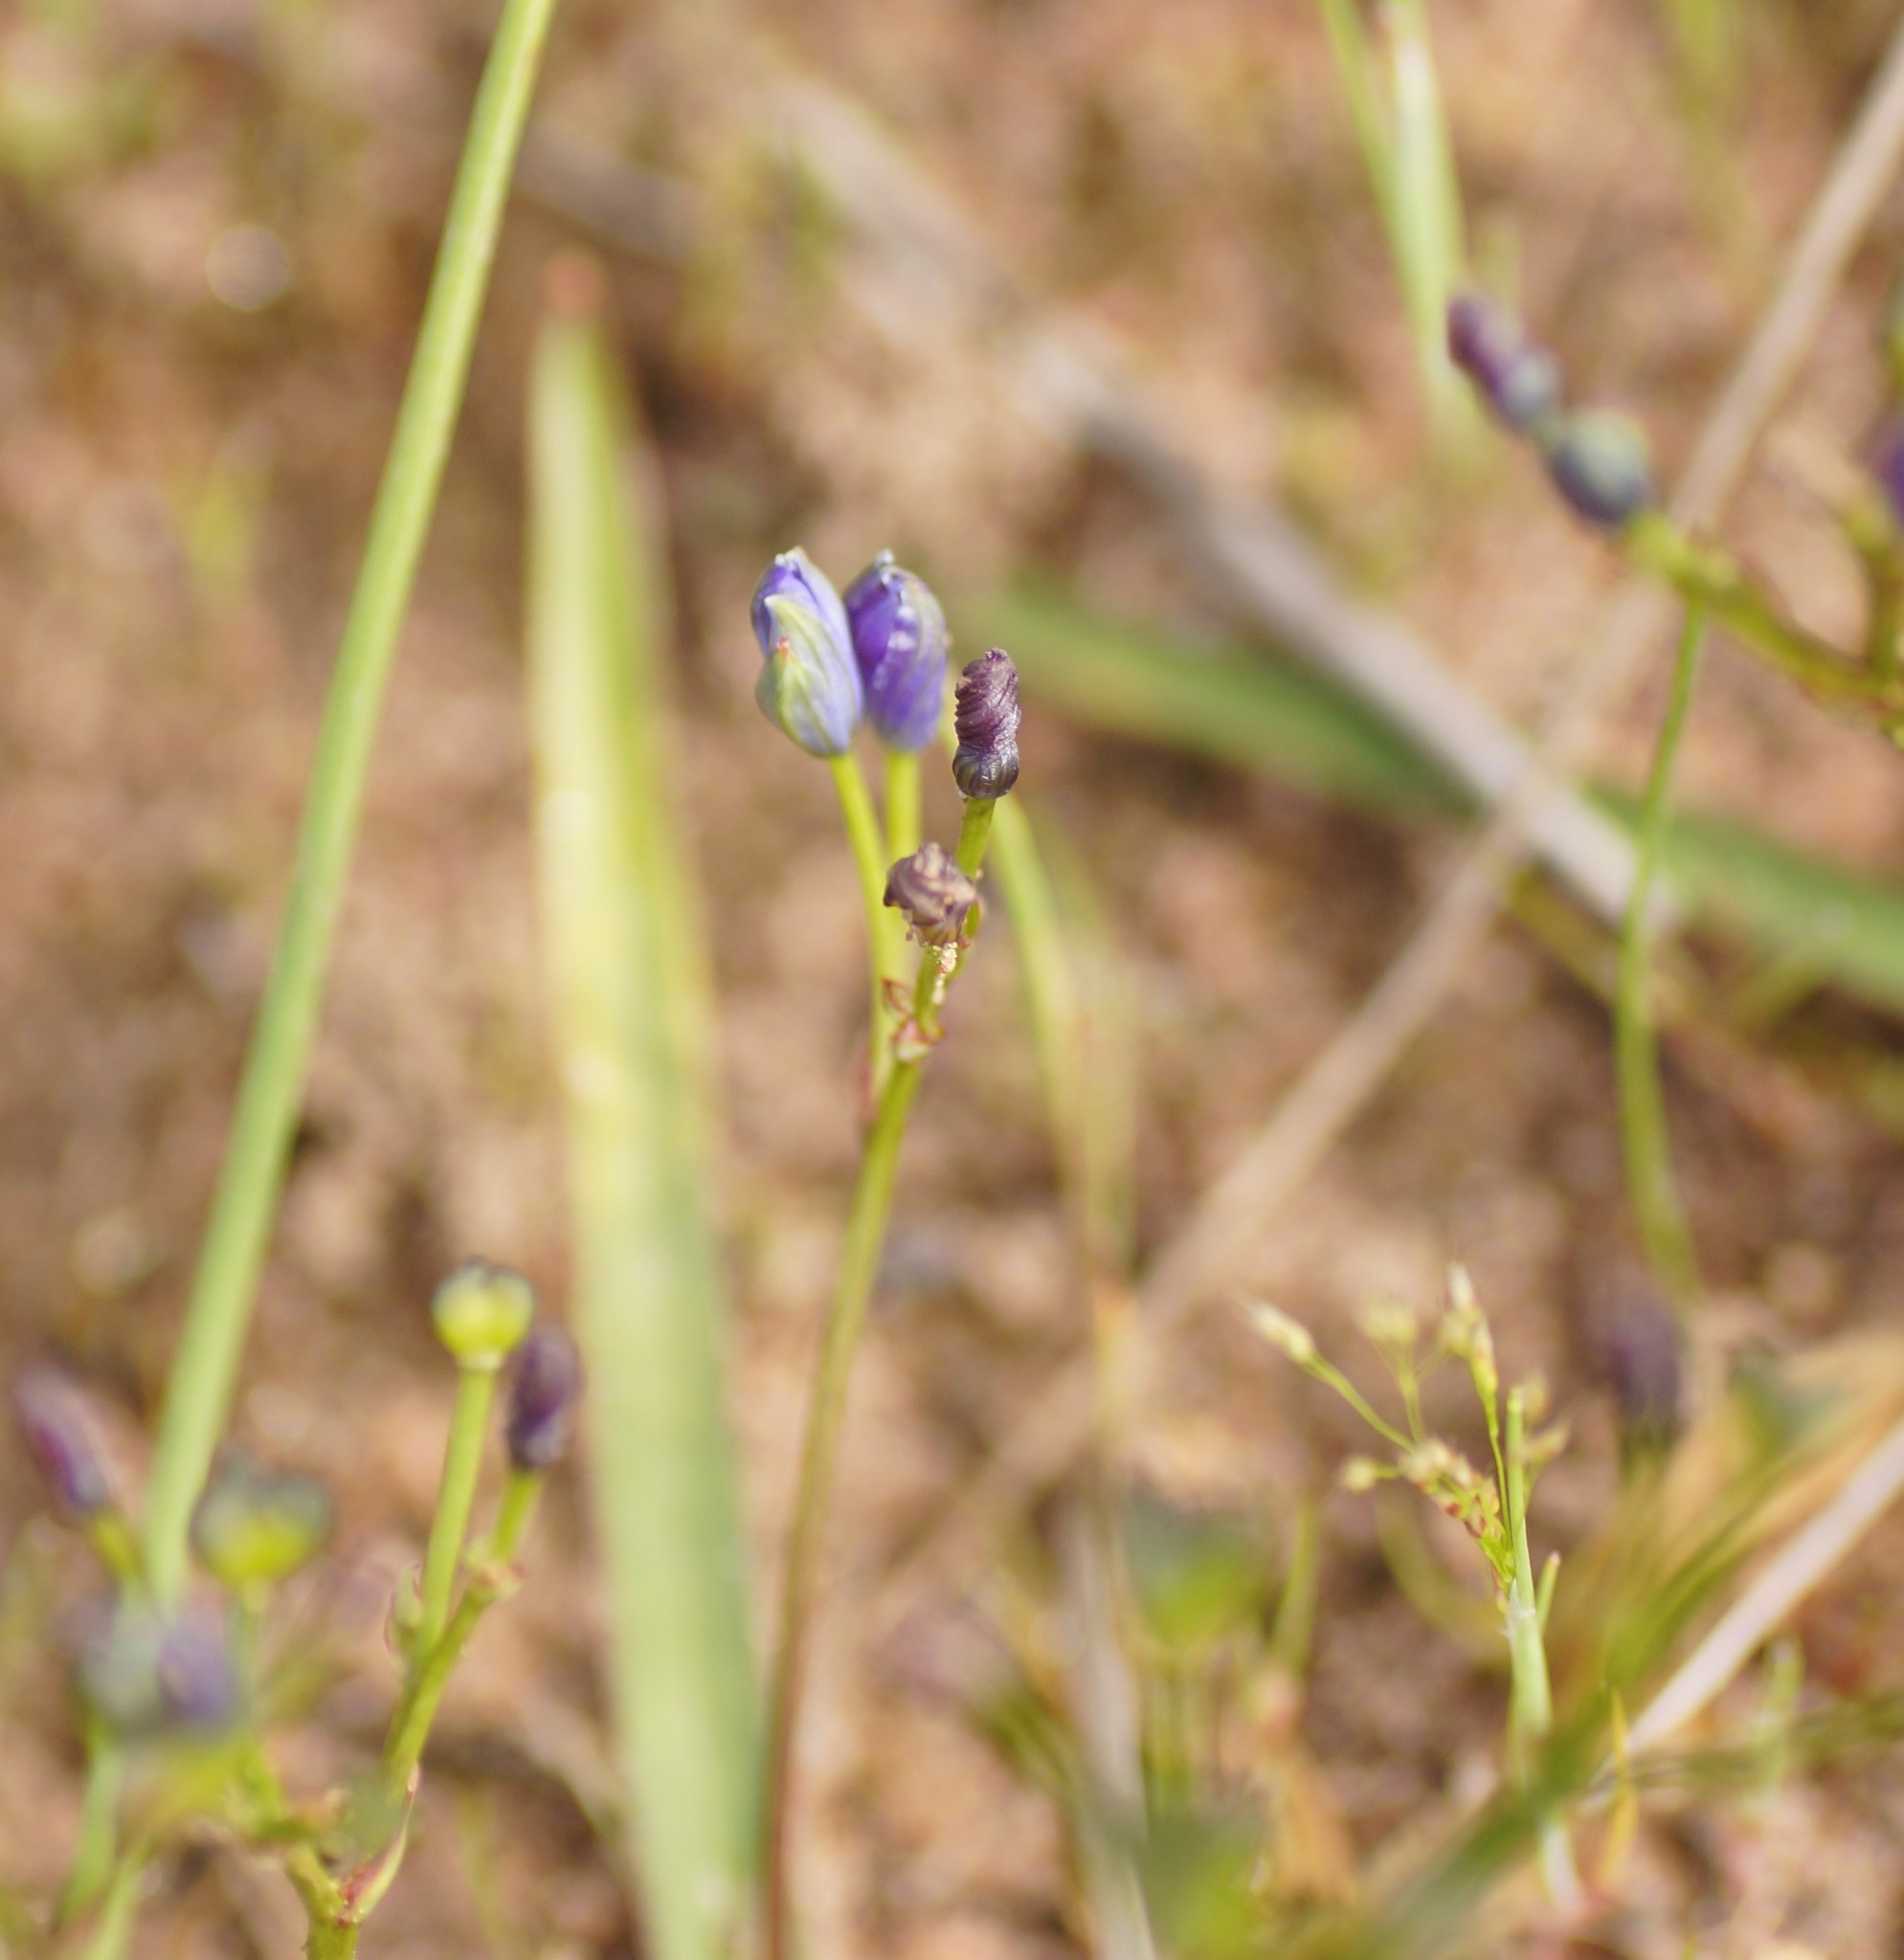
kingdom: Plantae
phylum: Tracheophyta
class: Liliopsida
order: Asparagales
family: Asphodelaceae
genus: Chamaescilla
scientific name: Chamaescilla corymbosa
